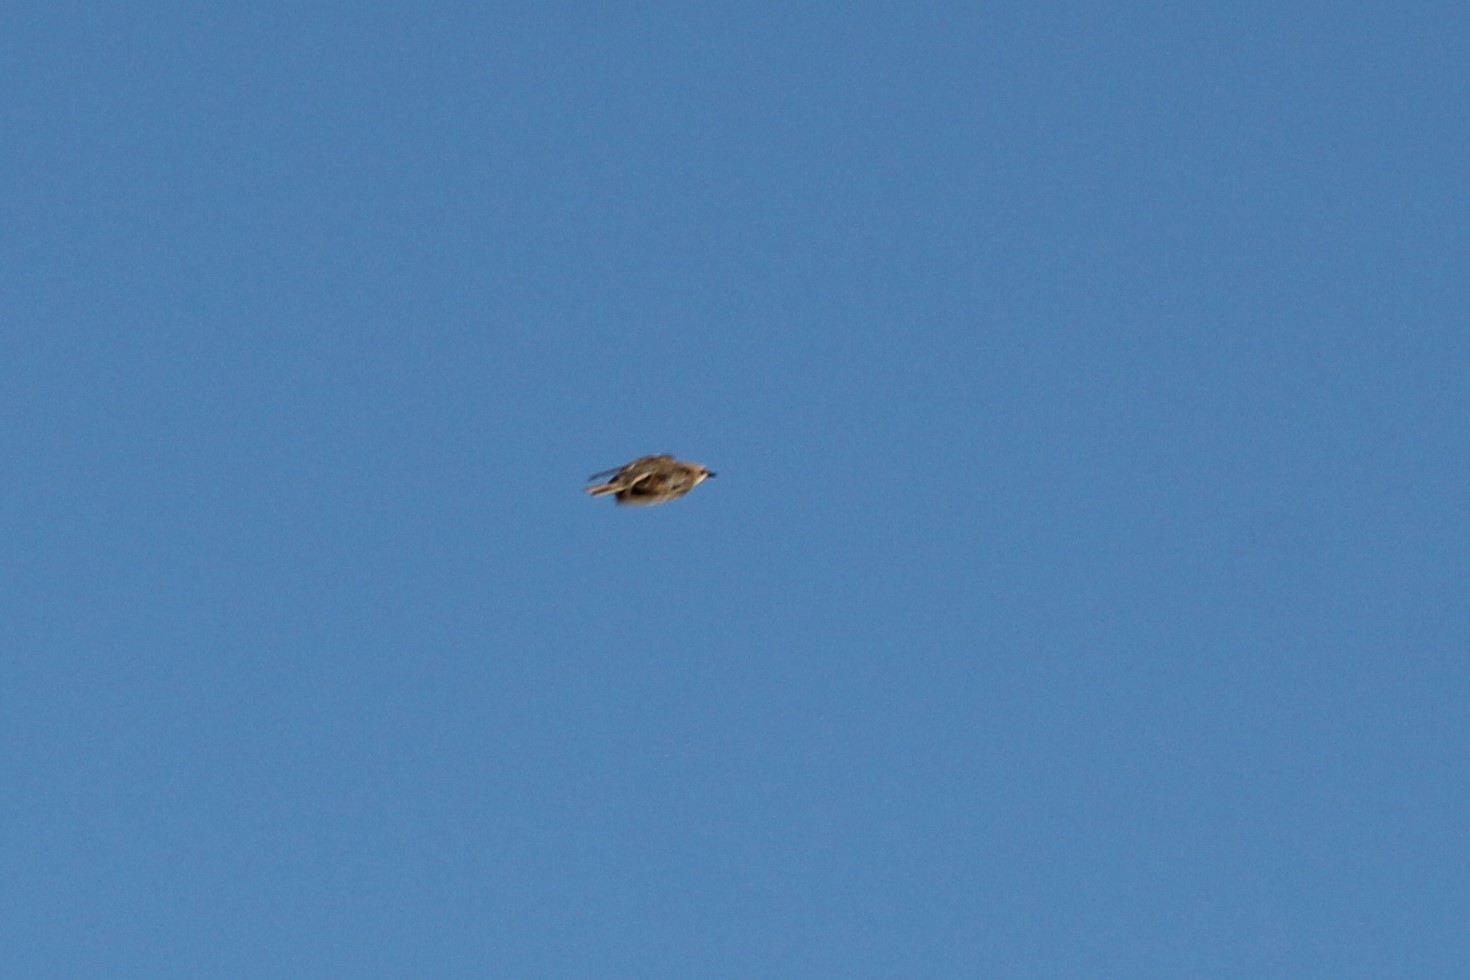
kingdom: Animalia
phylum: Chordata
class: Aves
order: Passeriformes
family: Sturnidae
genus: Sturnus
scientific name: Sturnus vulgaris
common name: Common starling
